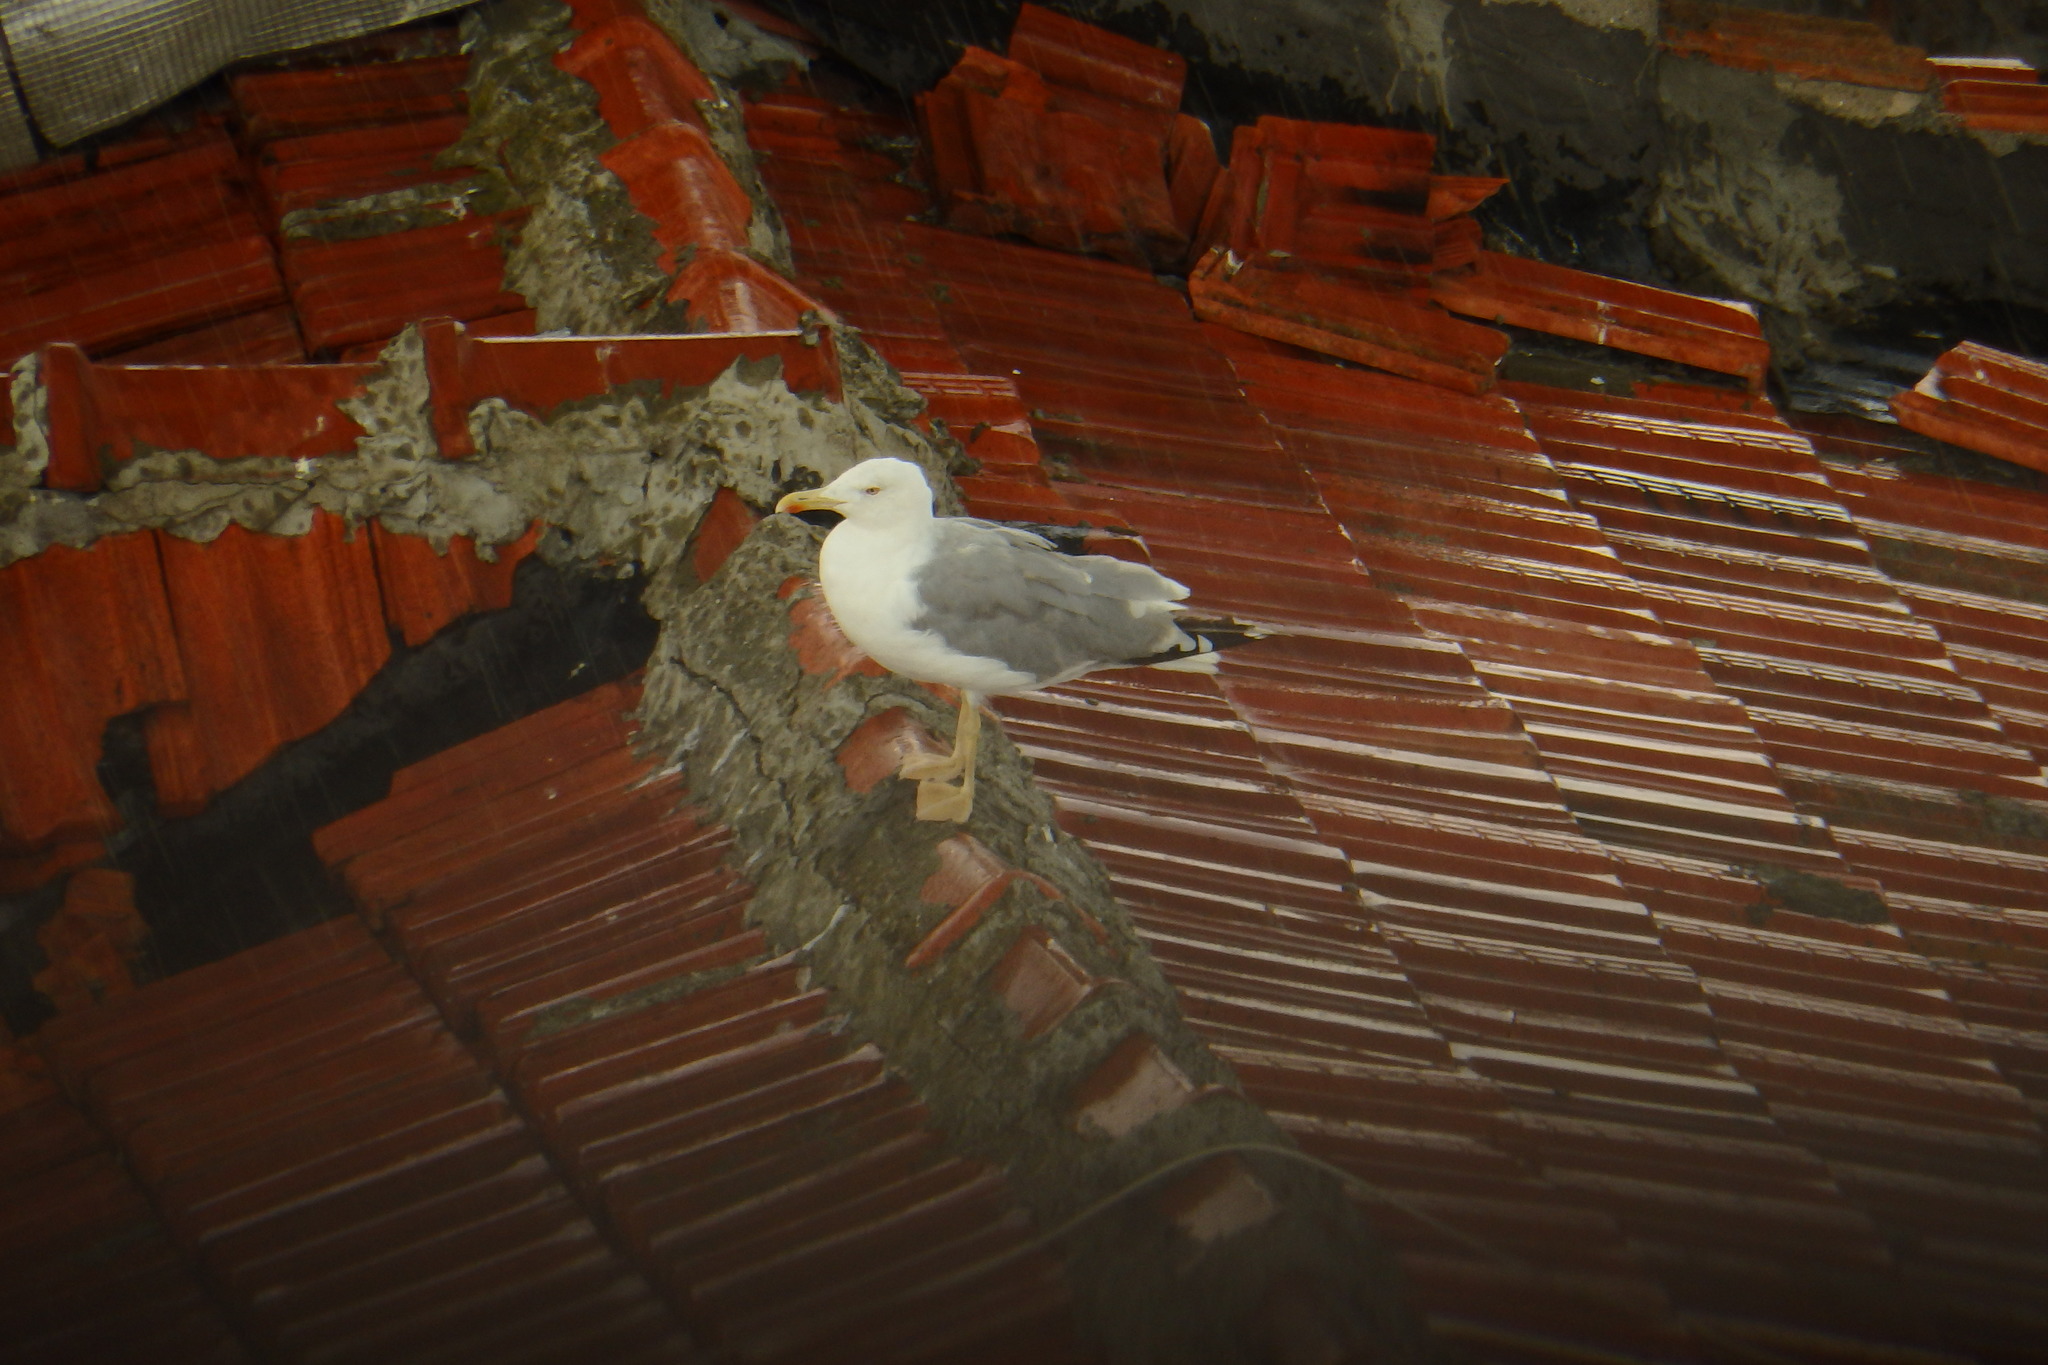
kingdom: Animalia
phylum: Chordata
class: Aves
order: Charadriiformes
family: Laridae
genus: Larus
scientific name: Larus michahellis
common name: Yellow-legged gull
